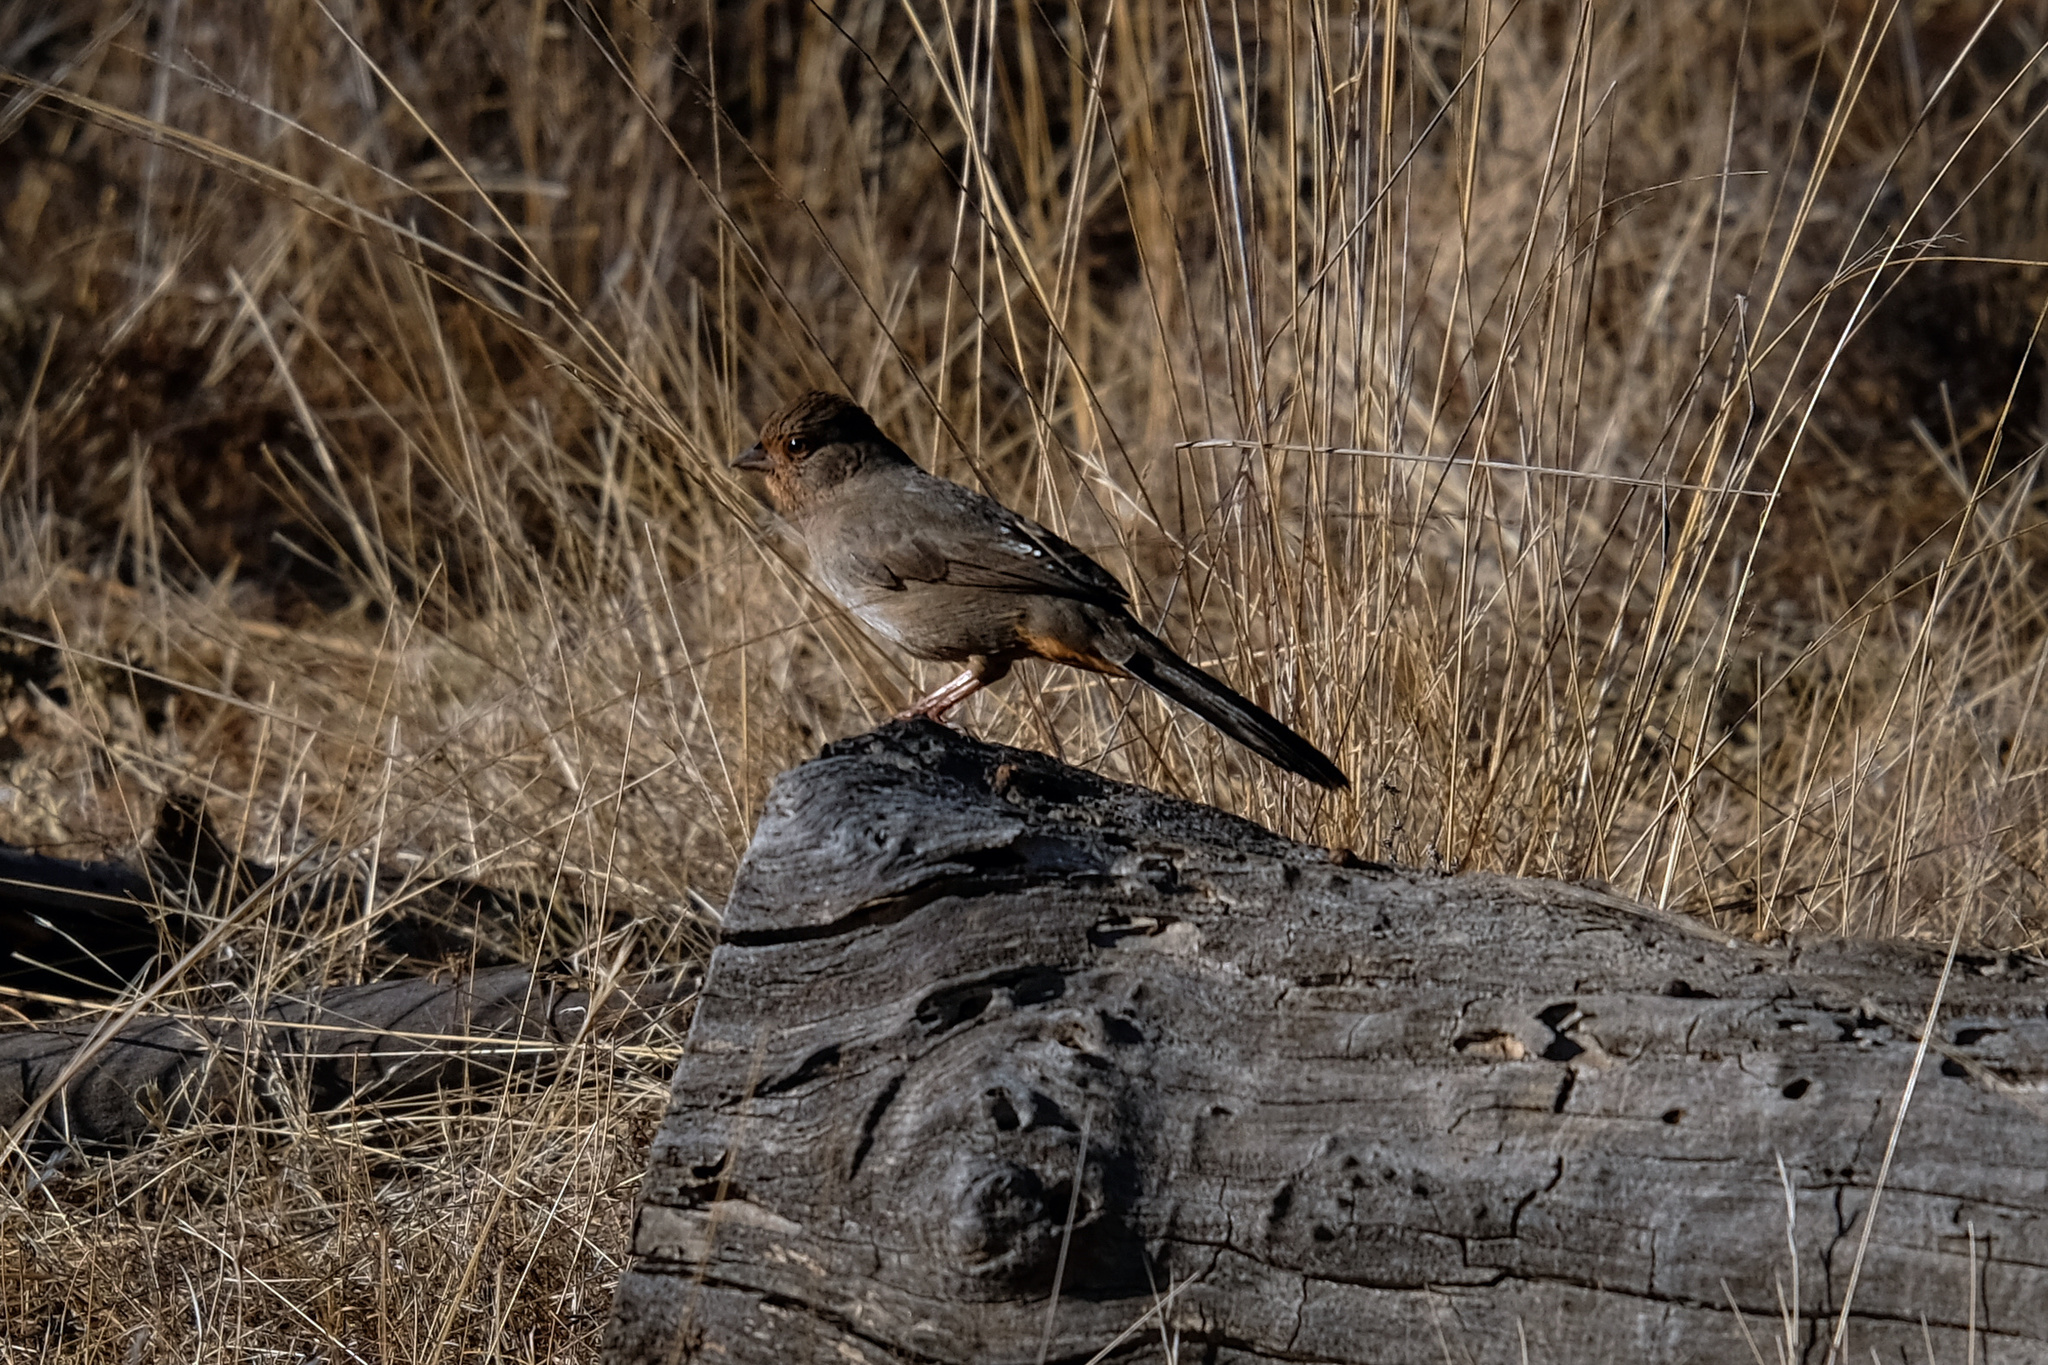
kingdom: Animalia
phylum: Chordata
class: Aves
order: Passeriformes
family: Passerellidae
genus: Melozone
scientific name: Melozone crissalis
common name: California towhee
